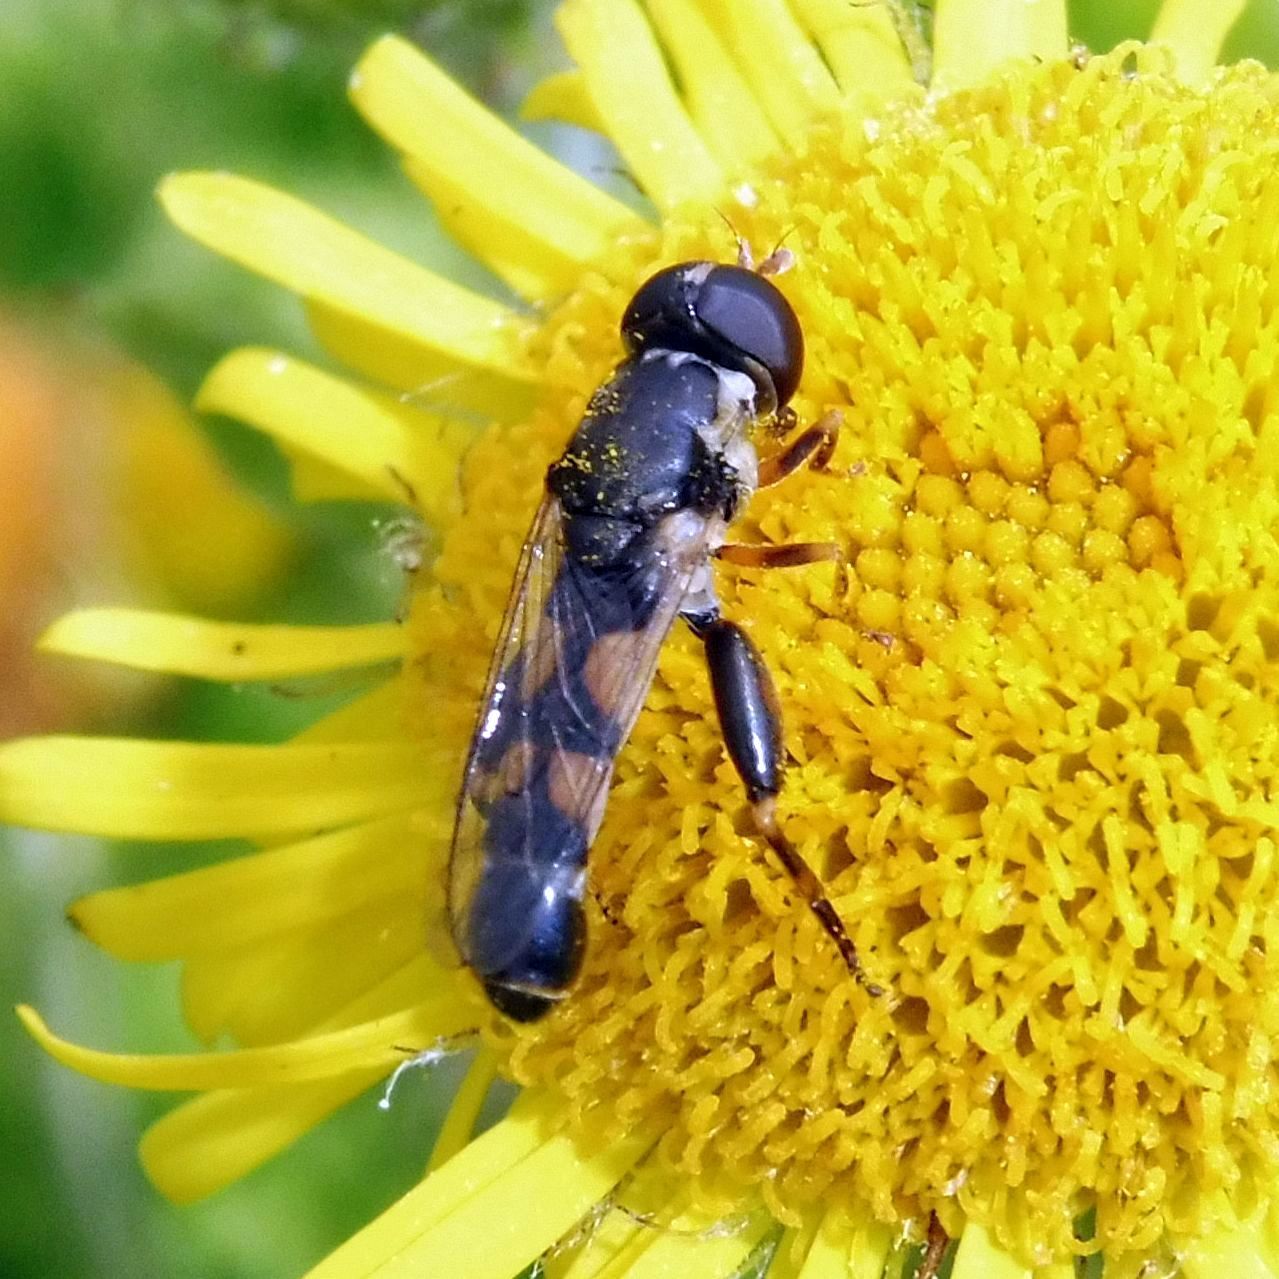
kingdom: Animalia
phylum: Arthropoda
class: Insecta
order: Diptera
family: Syrphidae
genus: Syritta
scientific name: Syritta pipiens
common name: Hover fly
